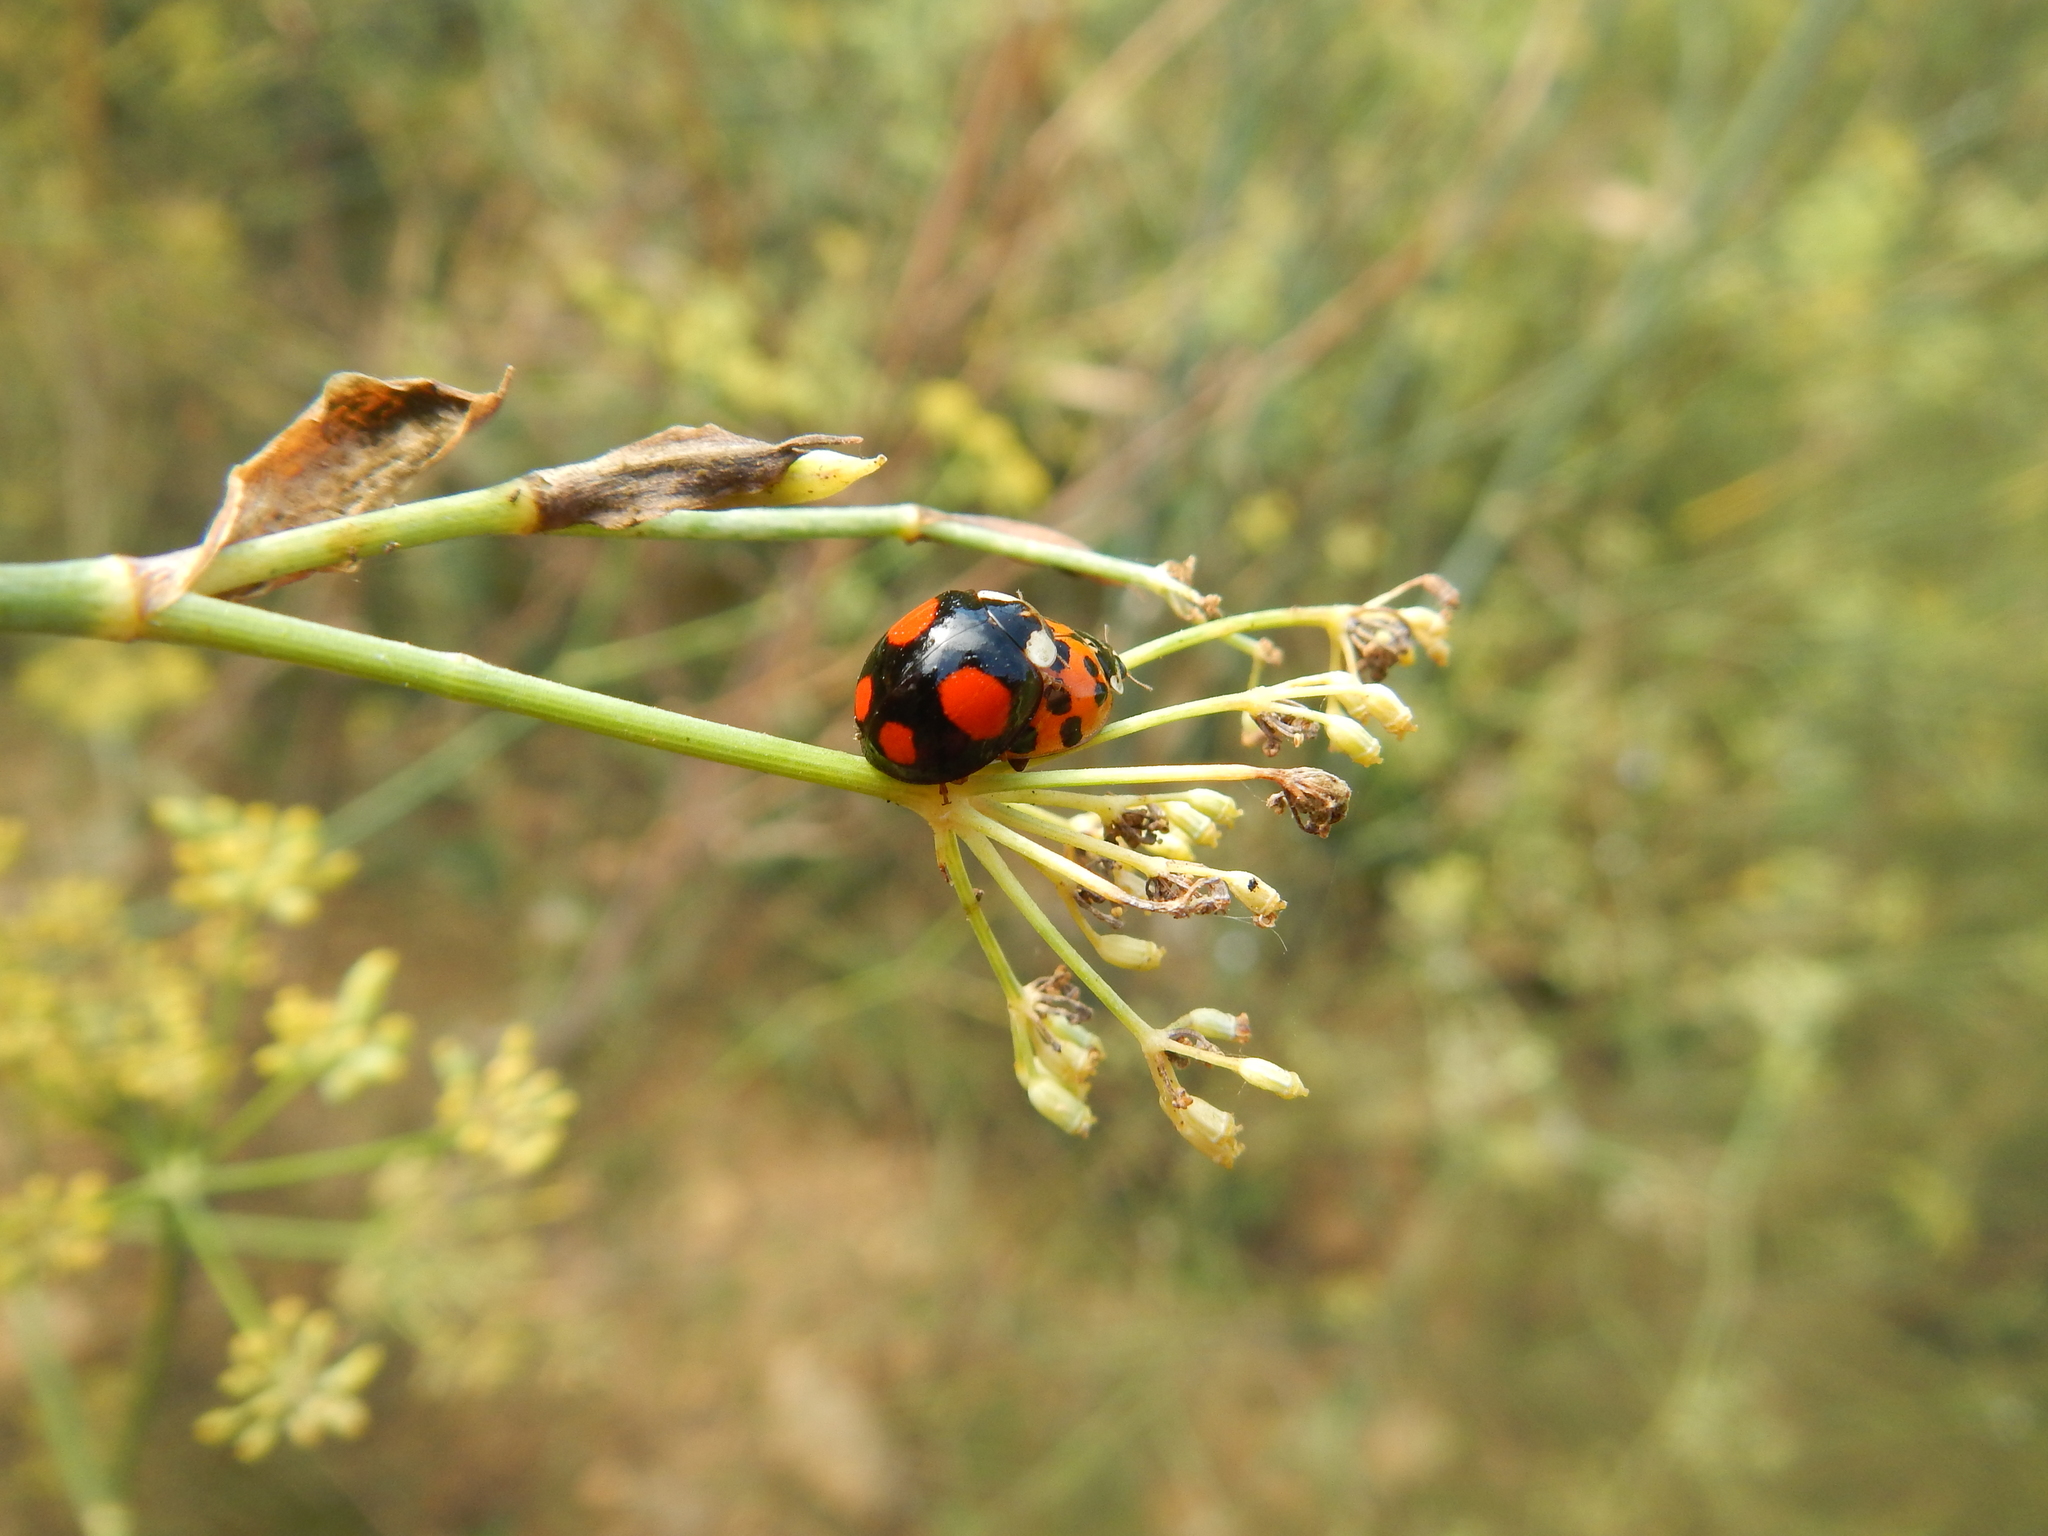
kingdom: Animalia
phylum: Arthropoda
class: Insecta
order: Coleoptera
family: Coccinellidae
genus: Harmonia
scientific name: Harmonia axyridis
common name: Harlequin ladybird
